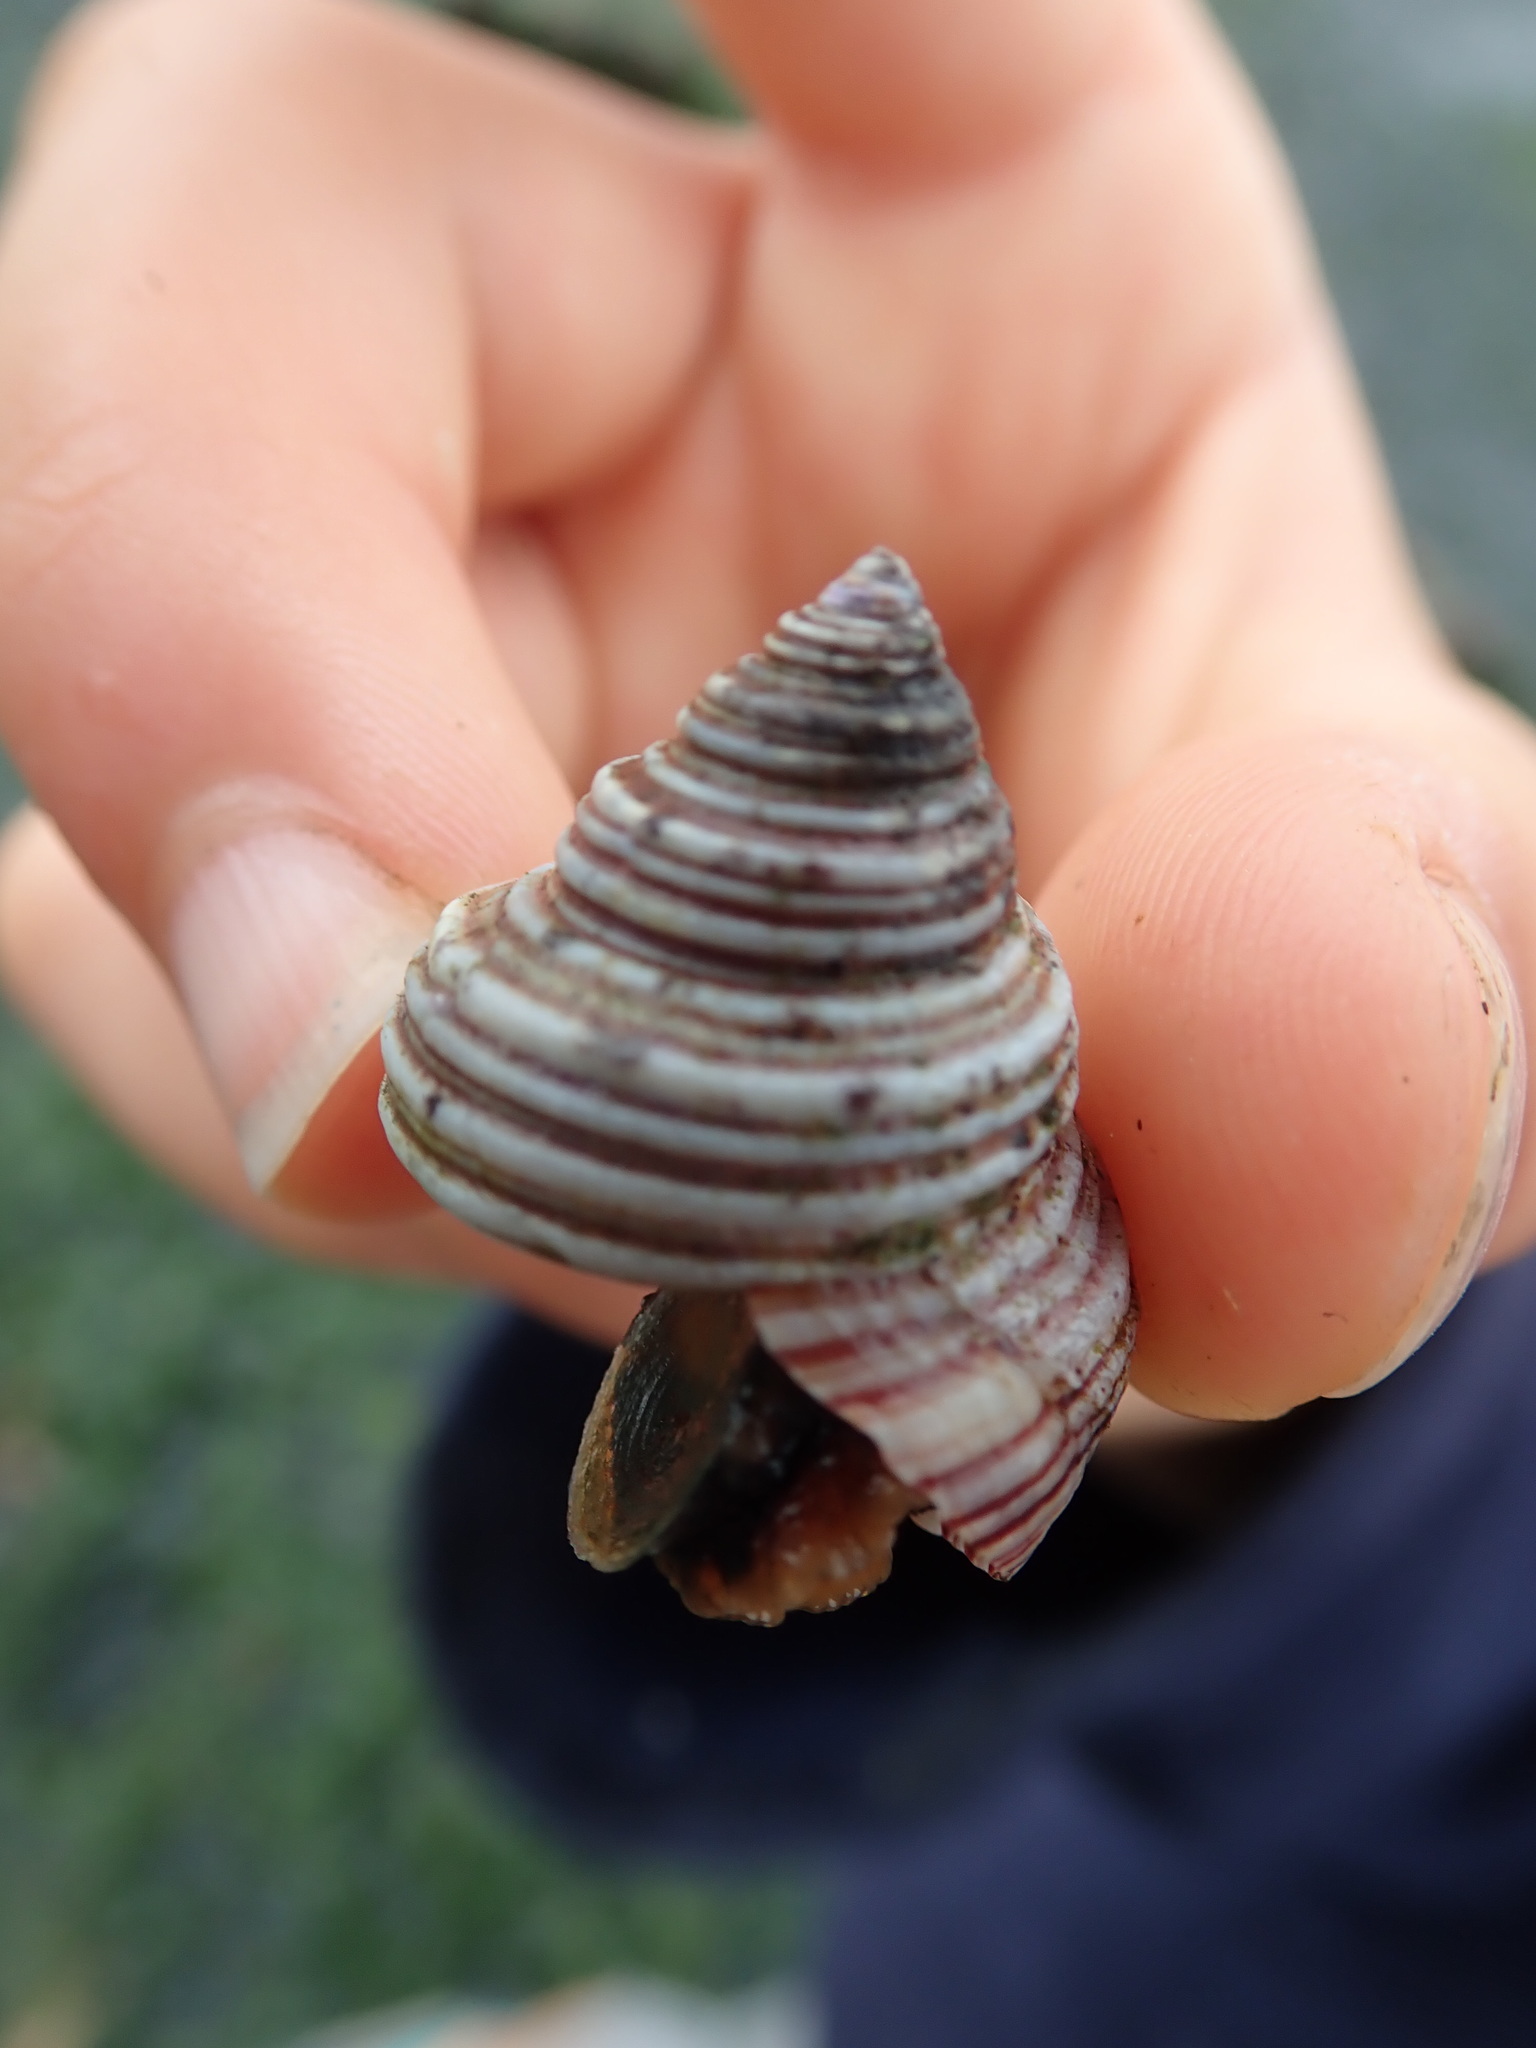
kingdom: Animalia
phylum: Mollusca
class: Gastropoda
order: Trochida
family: Calliostomatidae
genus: Calliostoma
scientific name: Calliostoma ligatum
